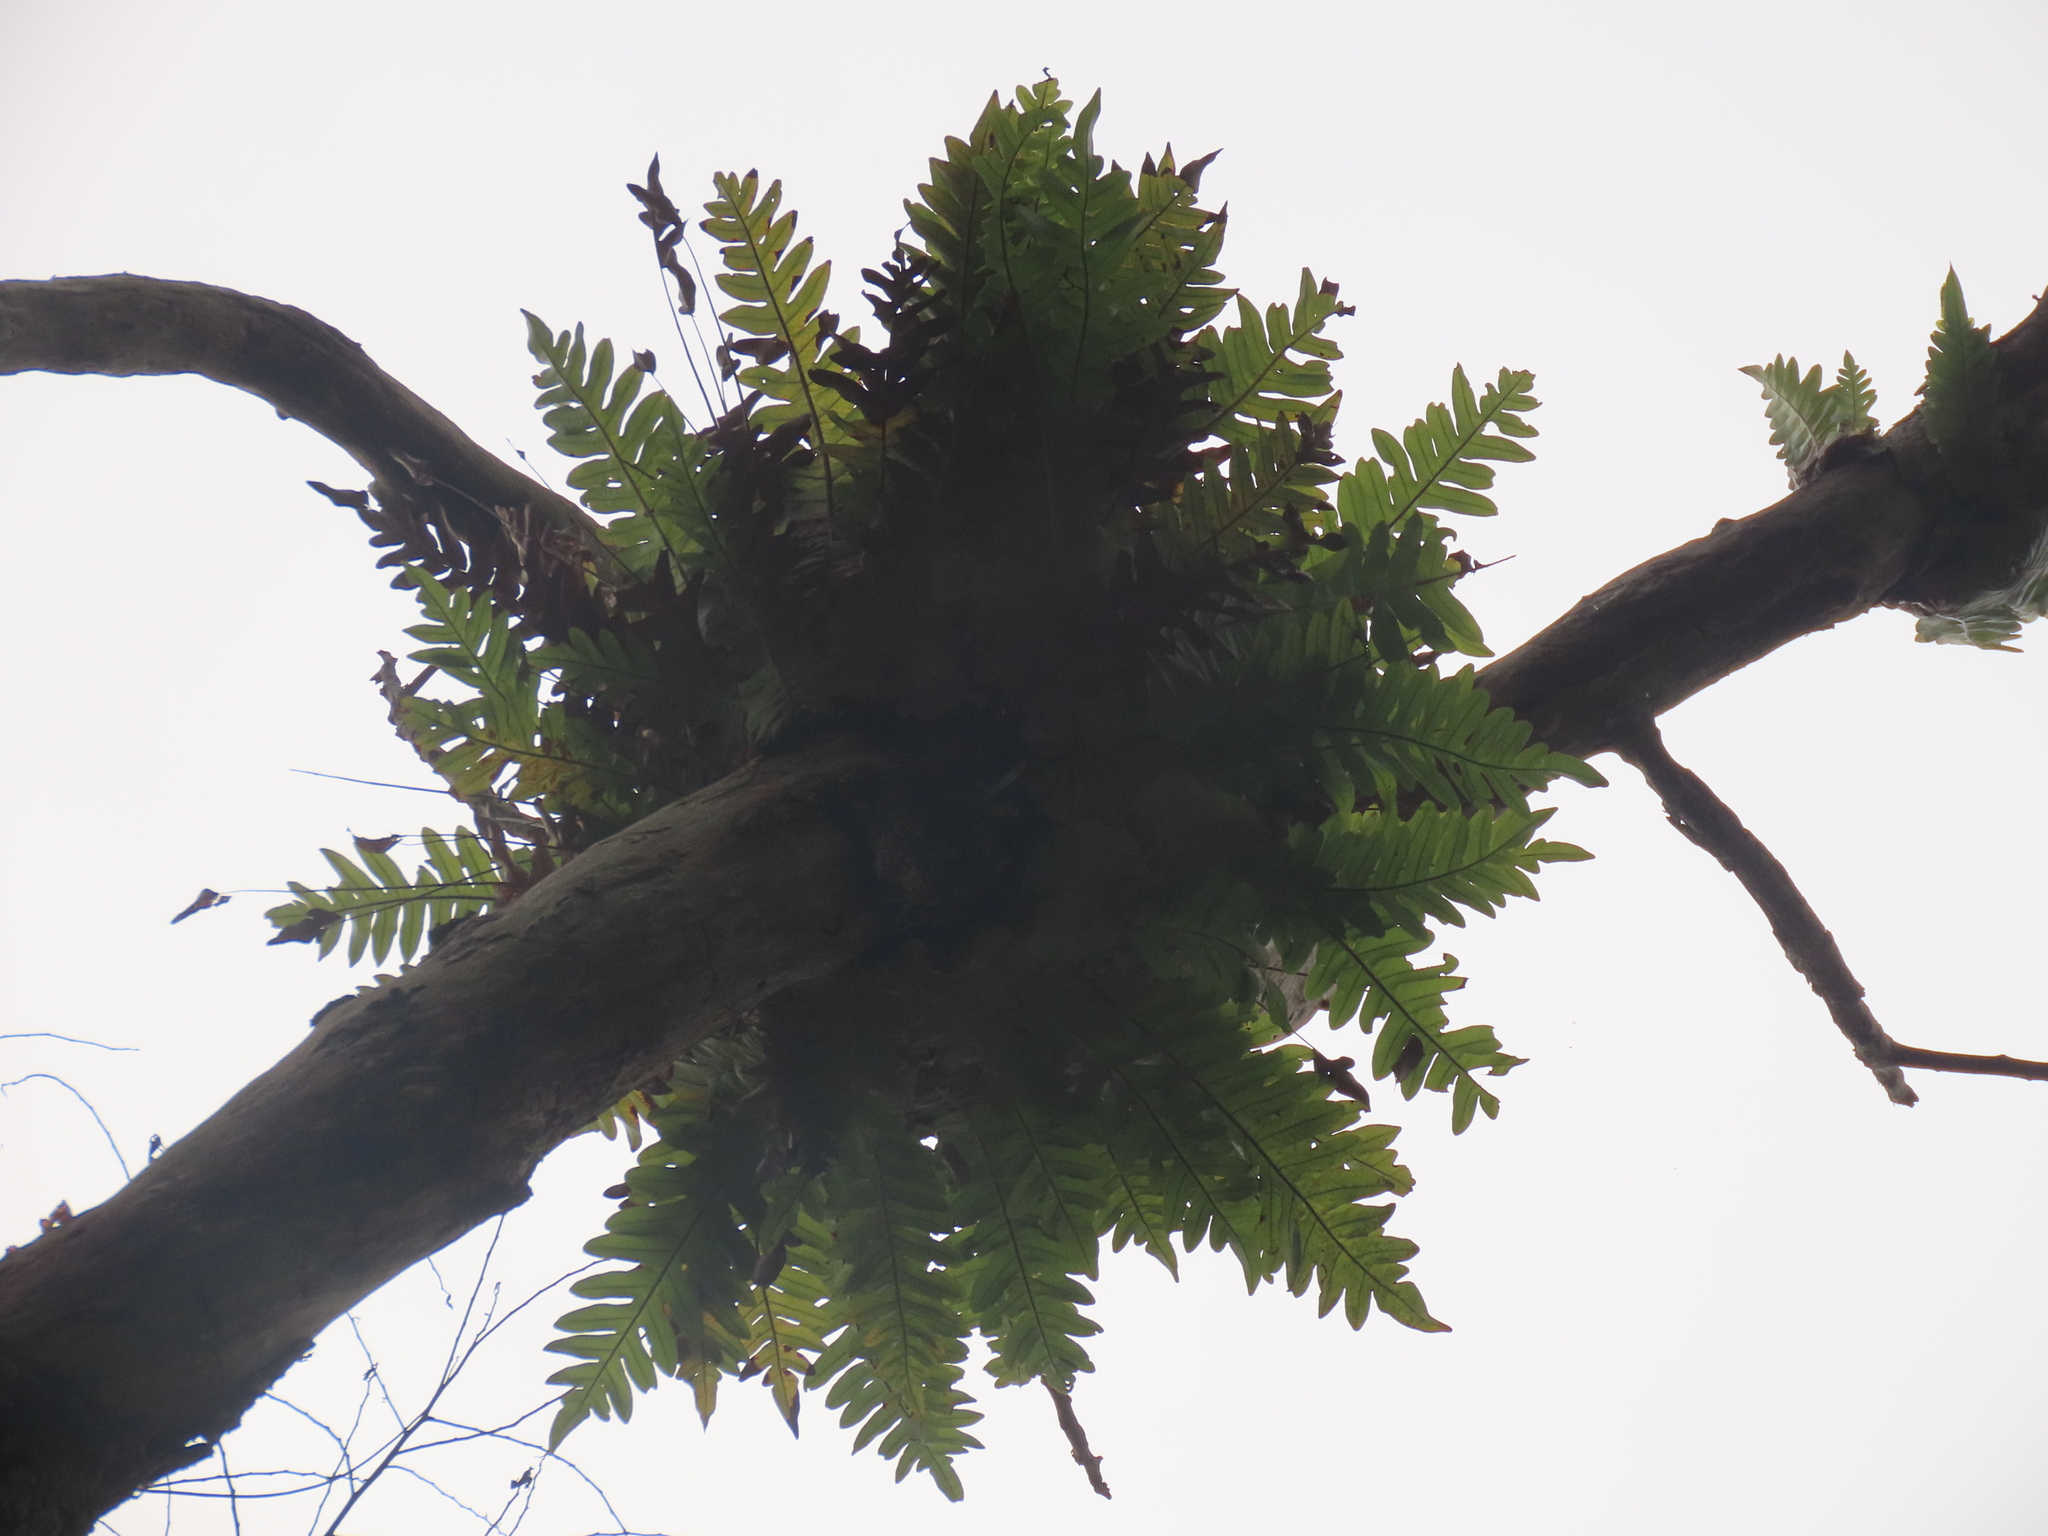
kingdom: Plantae
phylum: Tracheophyta
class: Polypodiopsida
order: Polypodiales
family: Polypodiaceae
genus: Drynaria
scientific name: Drynaria coronans
